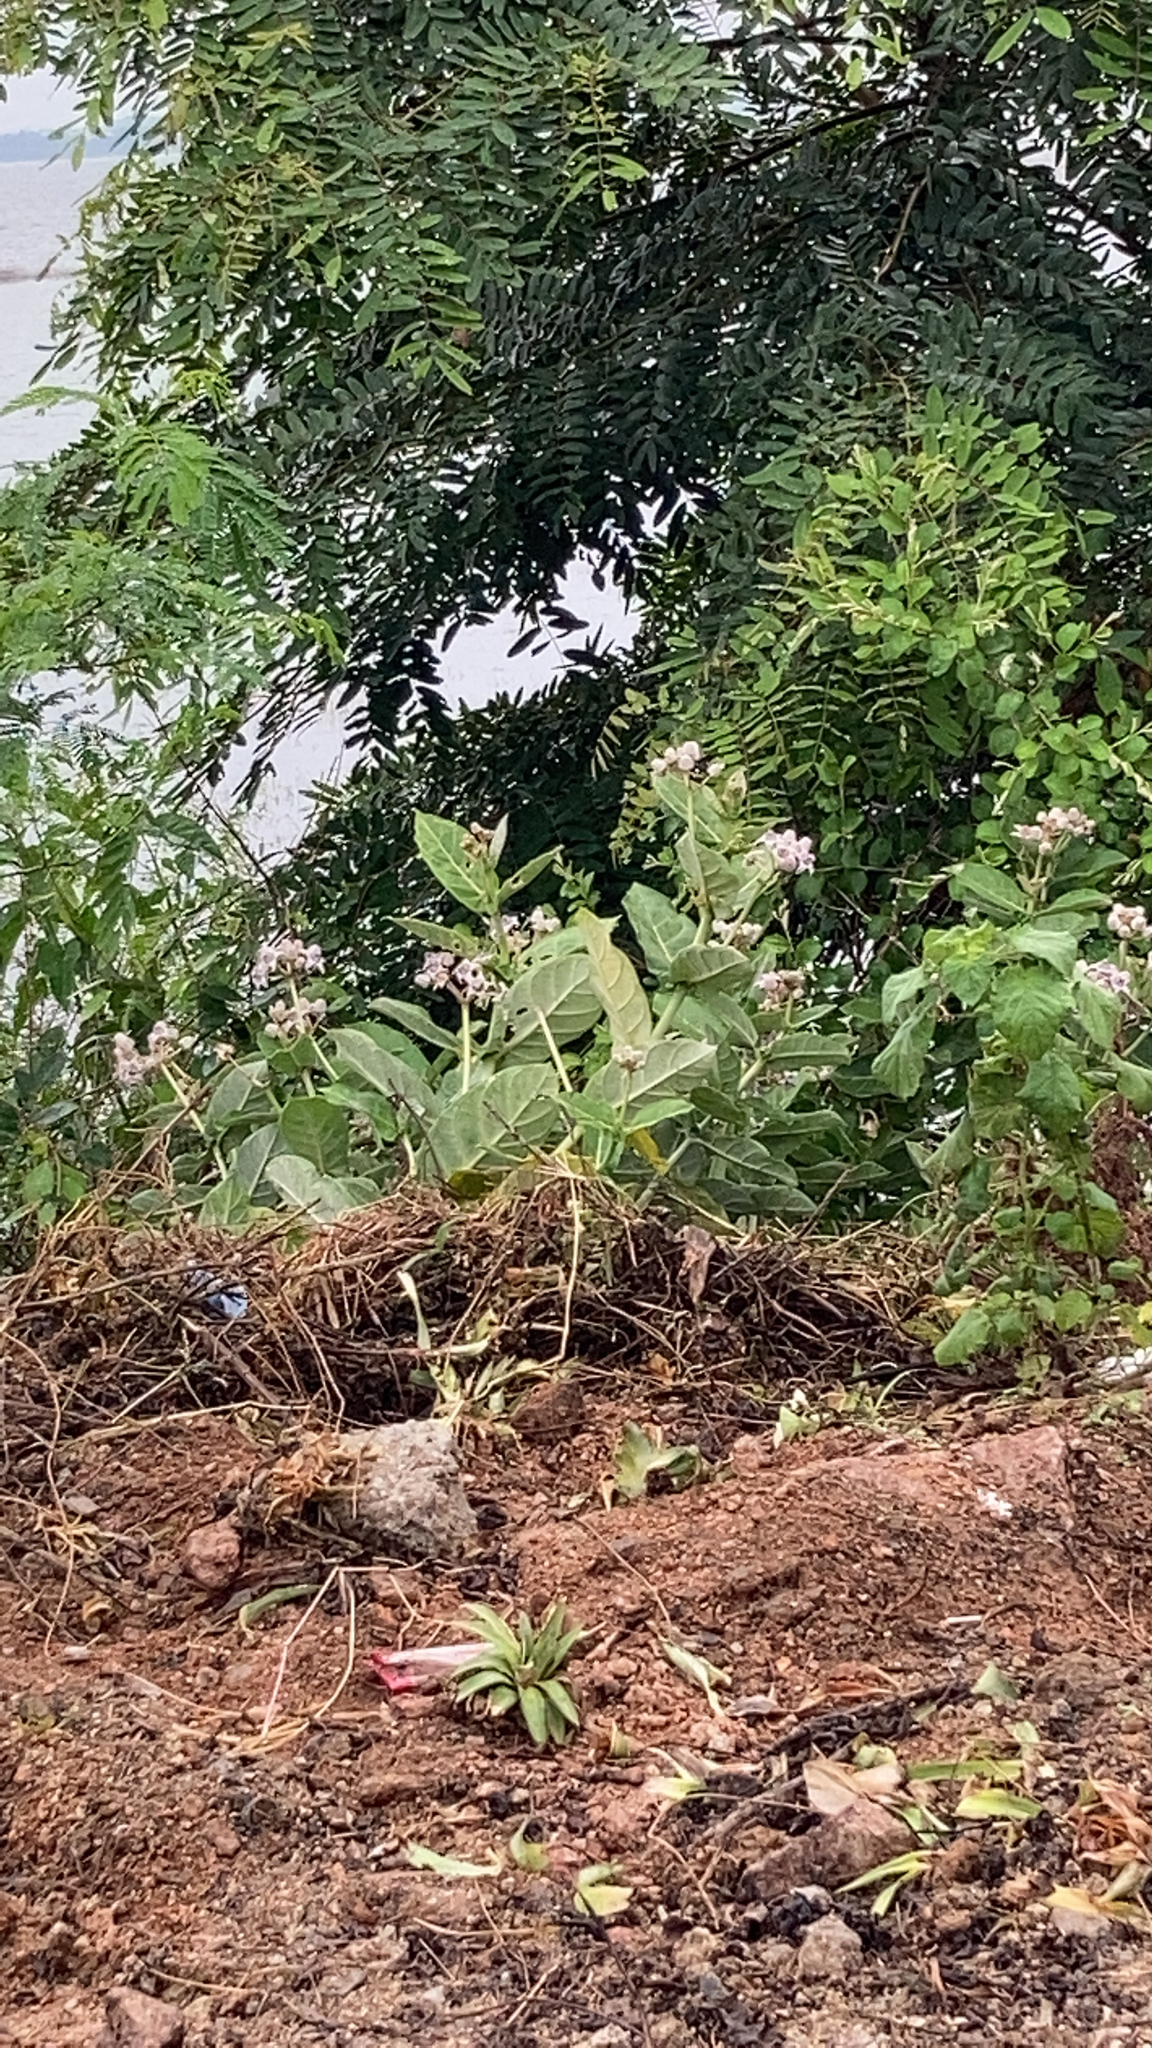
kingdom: Plantae
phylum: Tracheophyta
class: Magnoliopsida
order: Gentianales
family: Apocynaceae
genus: Calotropis
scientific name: Calotropis gigantea
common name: Crown flower
